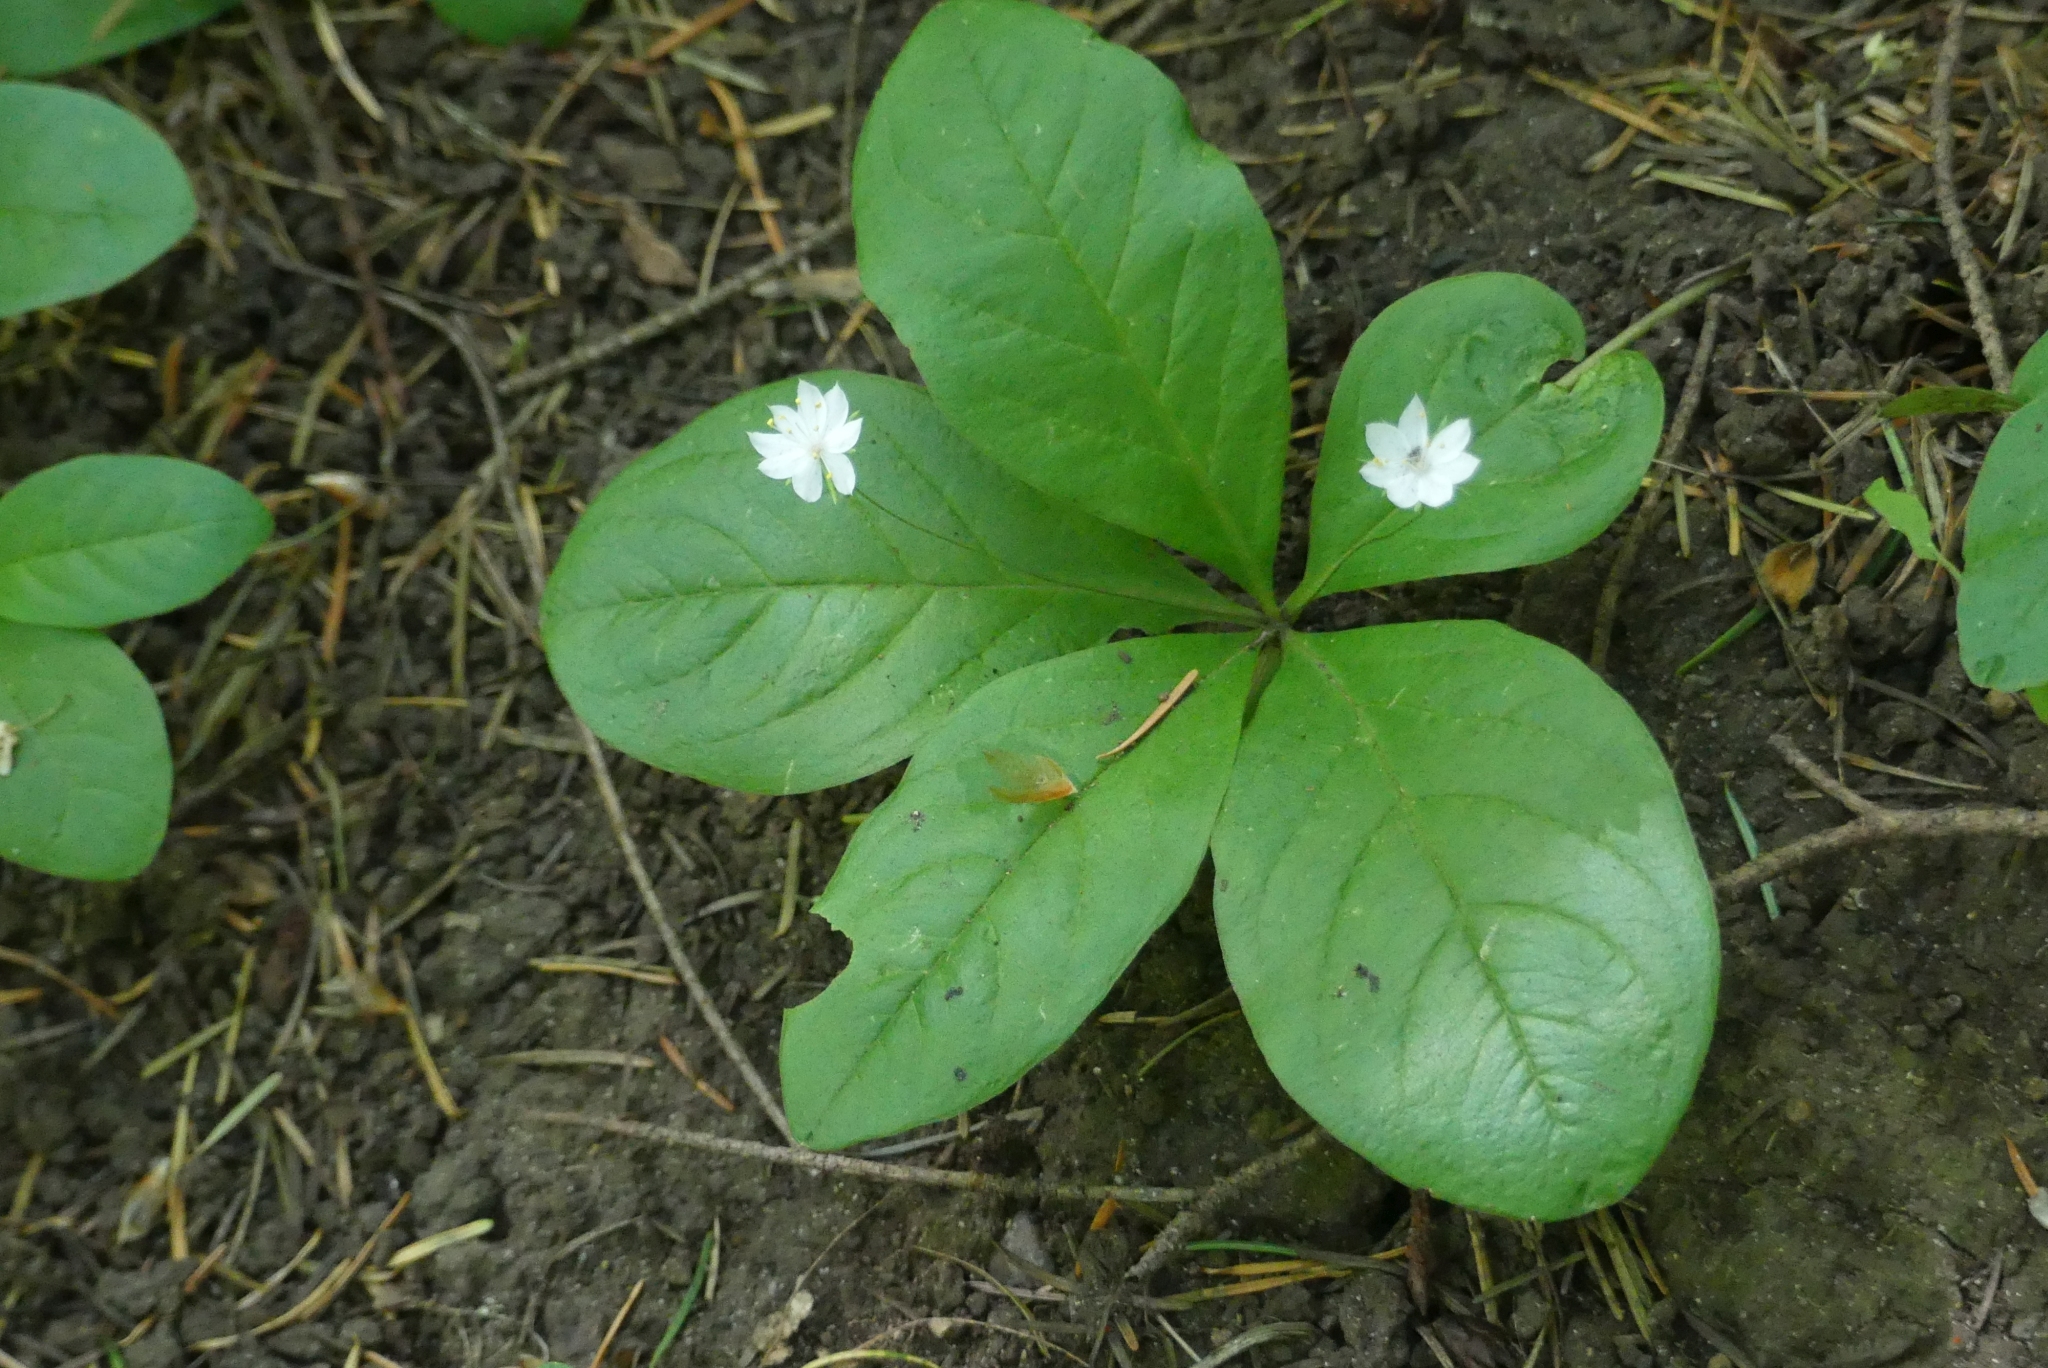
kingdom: Plantae
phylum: Tracheophyta
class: Magnoliopsida
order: Ericales
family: Primulaceae
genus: Lysimachia
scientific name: Lysimachia latifolia
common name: Pacific starflower
